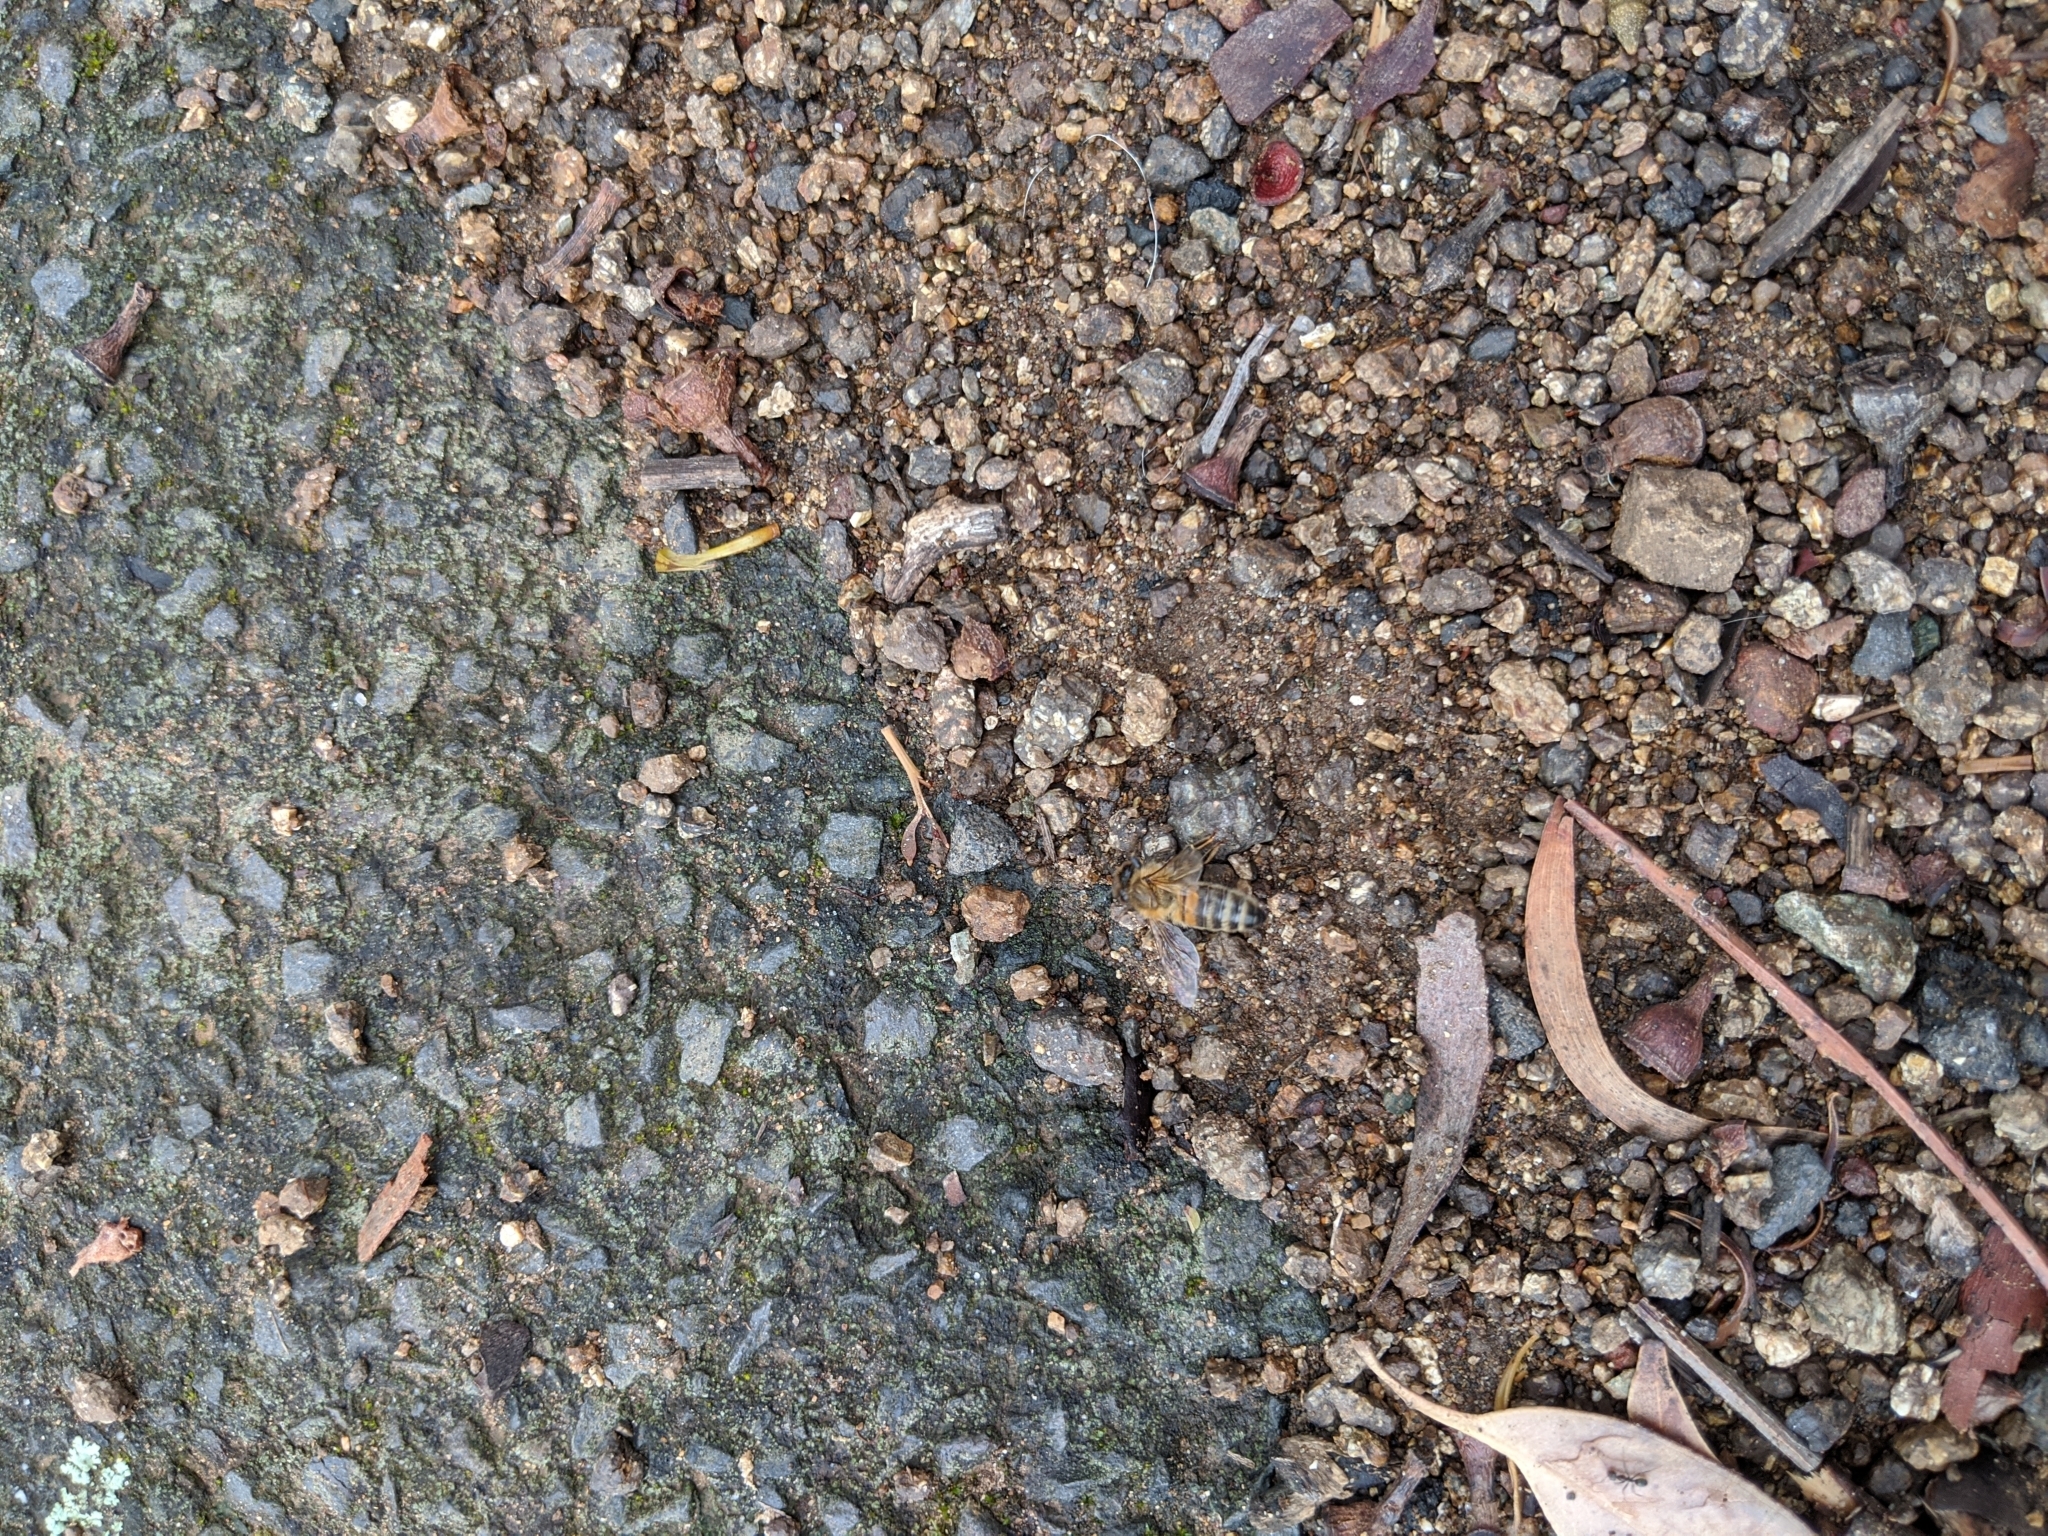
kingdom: Animalia
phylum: Arthropoda
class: Insecta
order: Hymenoptera
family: Apidae
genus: Apis
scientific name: Apis mellifera
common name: Honey bee
